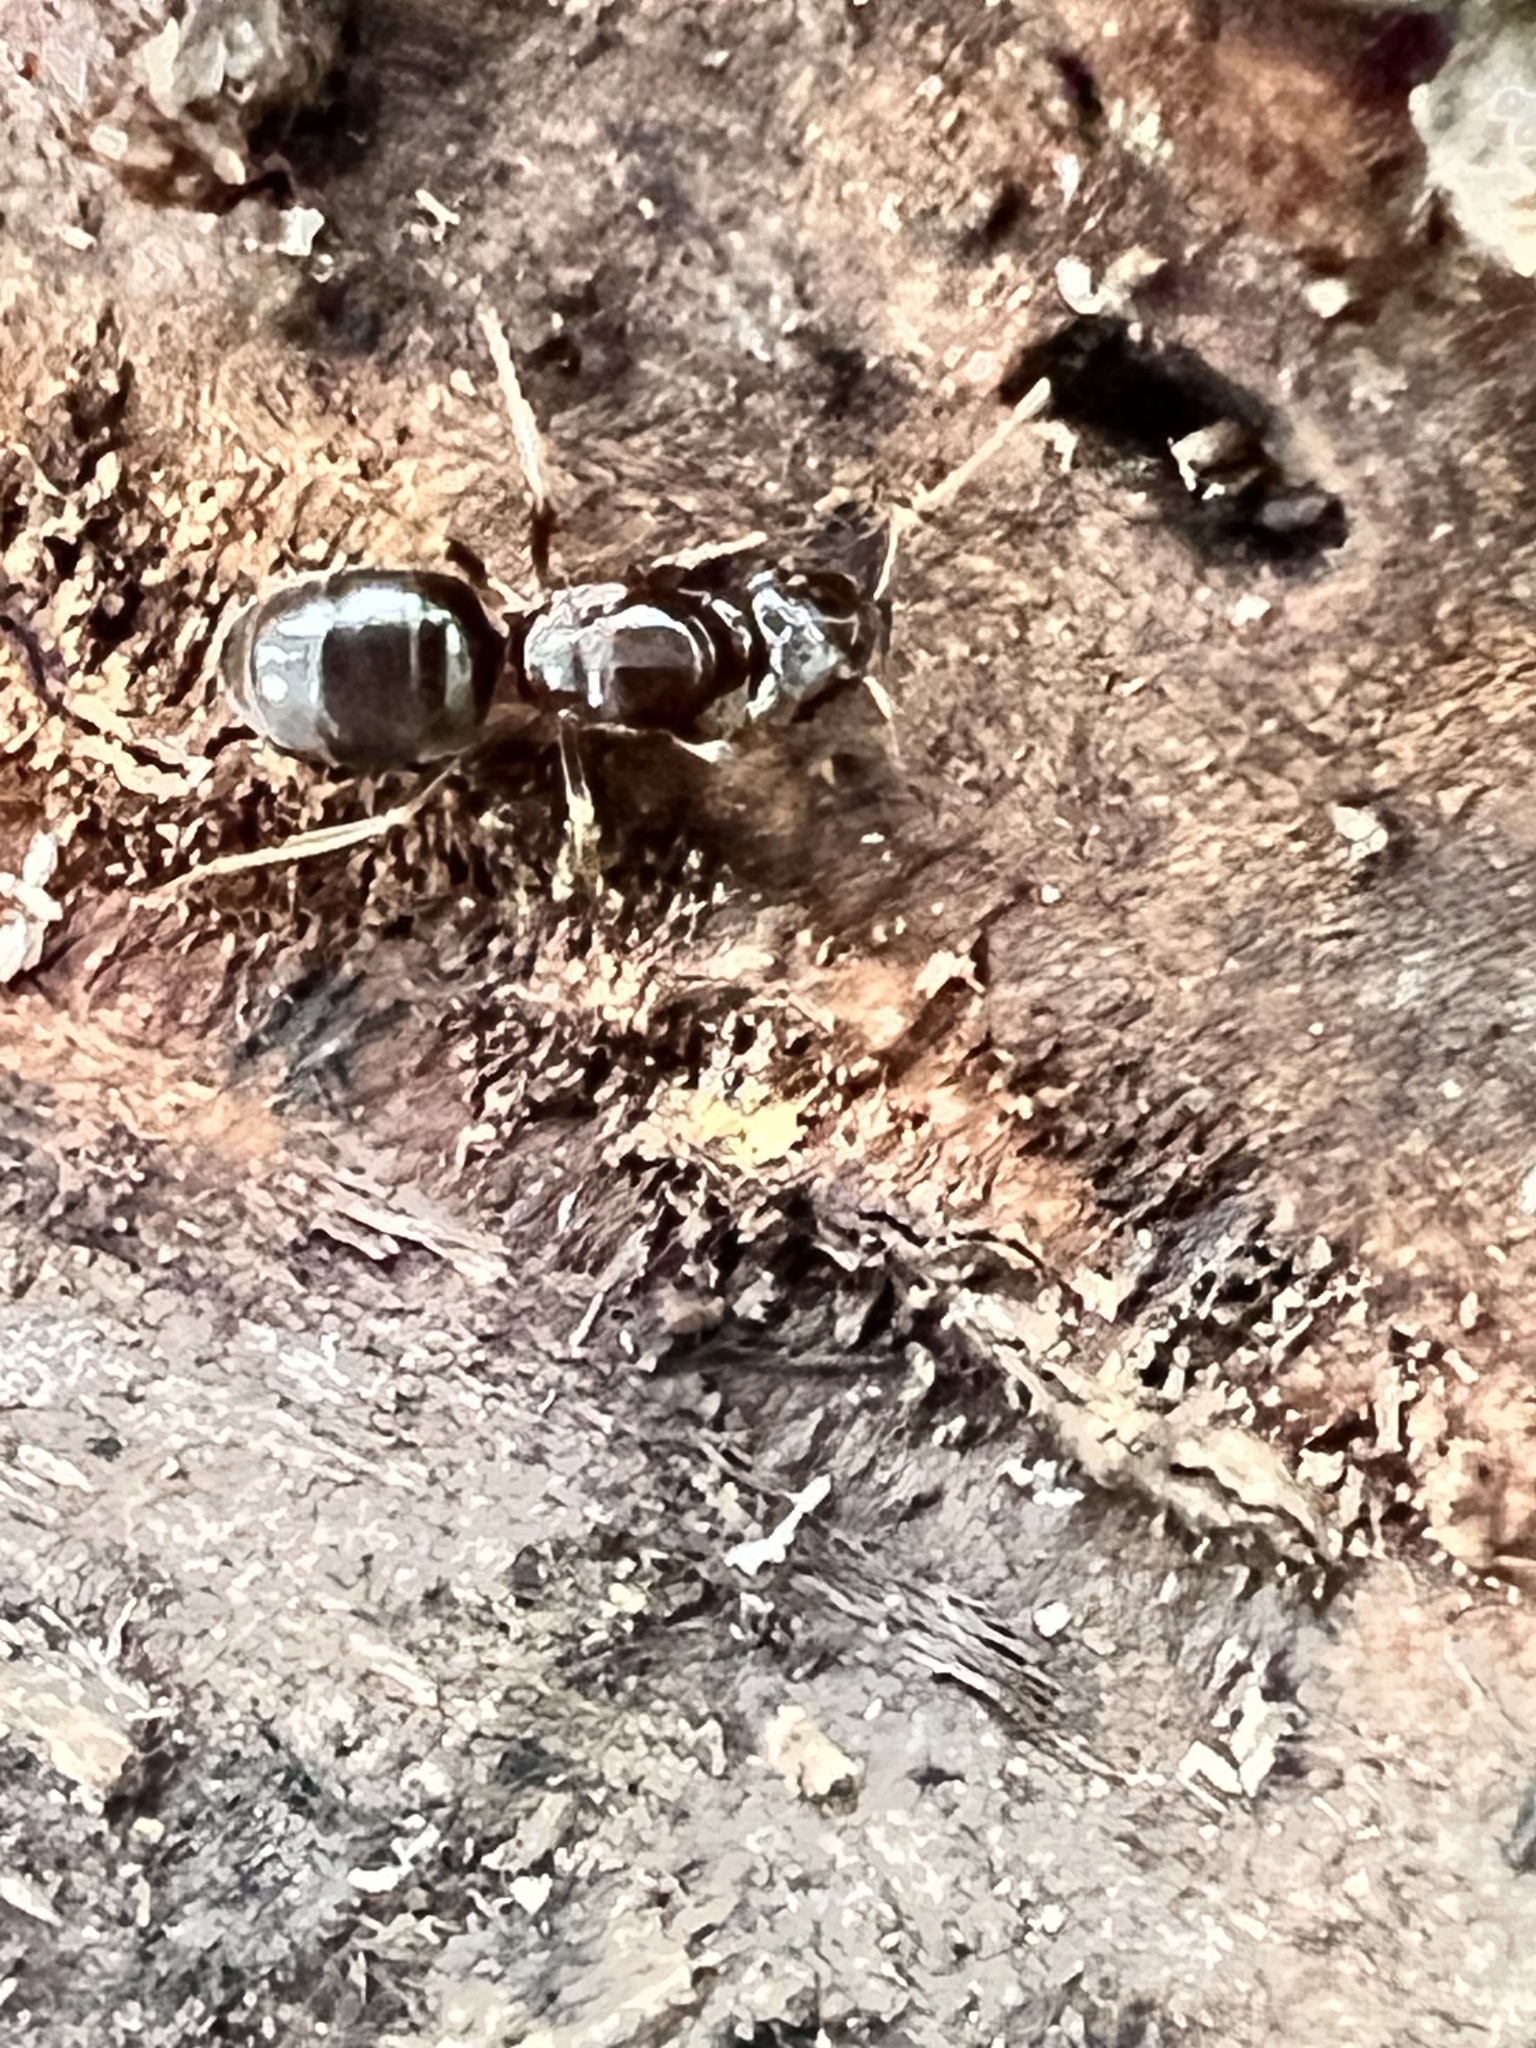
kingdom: Animalia
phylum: Arthropoda
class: Insecta
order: Hymenoptera
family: Formicidae
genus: Lasius
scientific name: Lasius aphidicola
